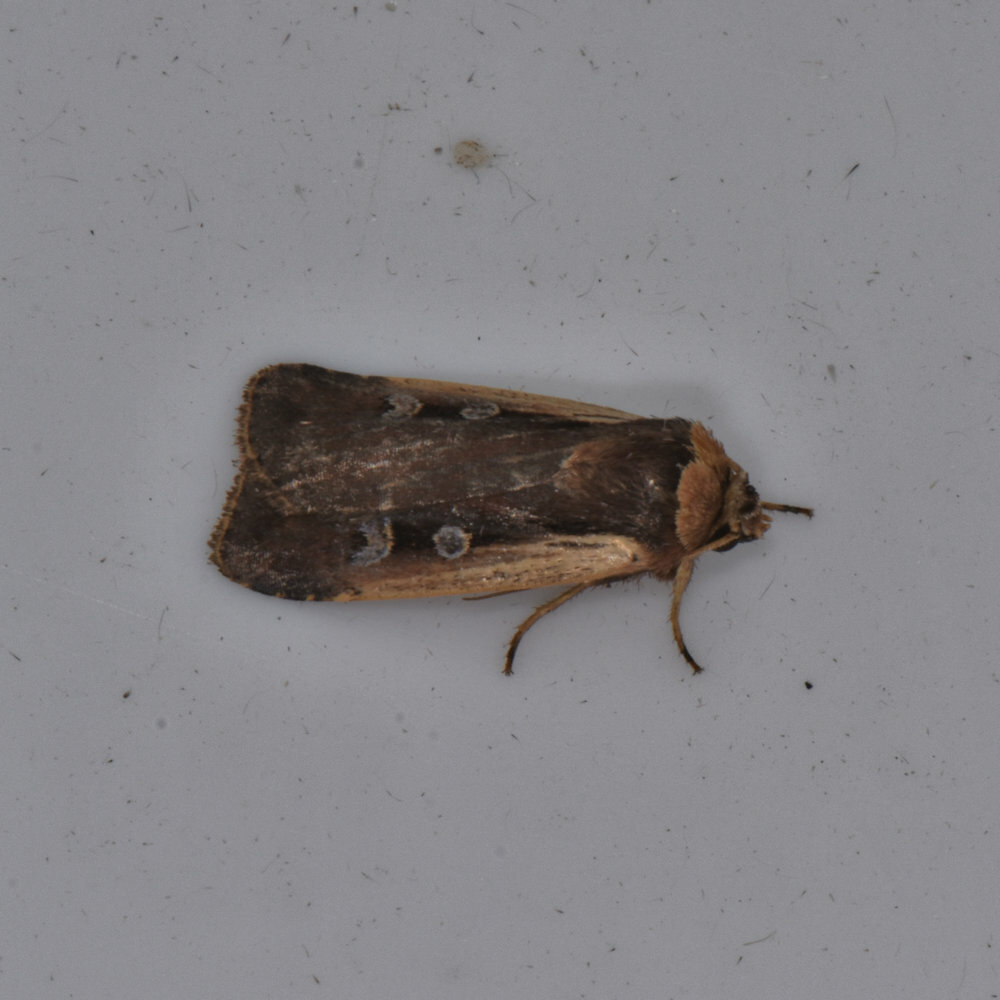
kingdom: Animalia
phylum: Arthropoda
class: Insecta
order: Lepidoptera
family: Noctuidae
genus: Ochropleura
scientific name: Ochropleura implecta
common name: Flame-shouldered dart
